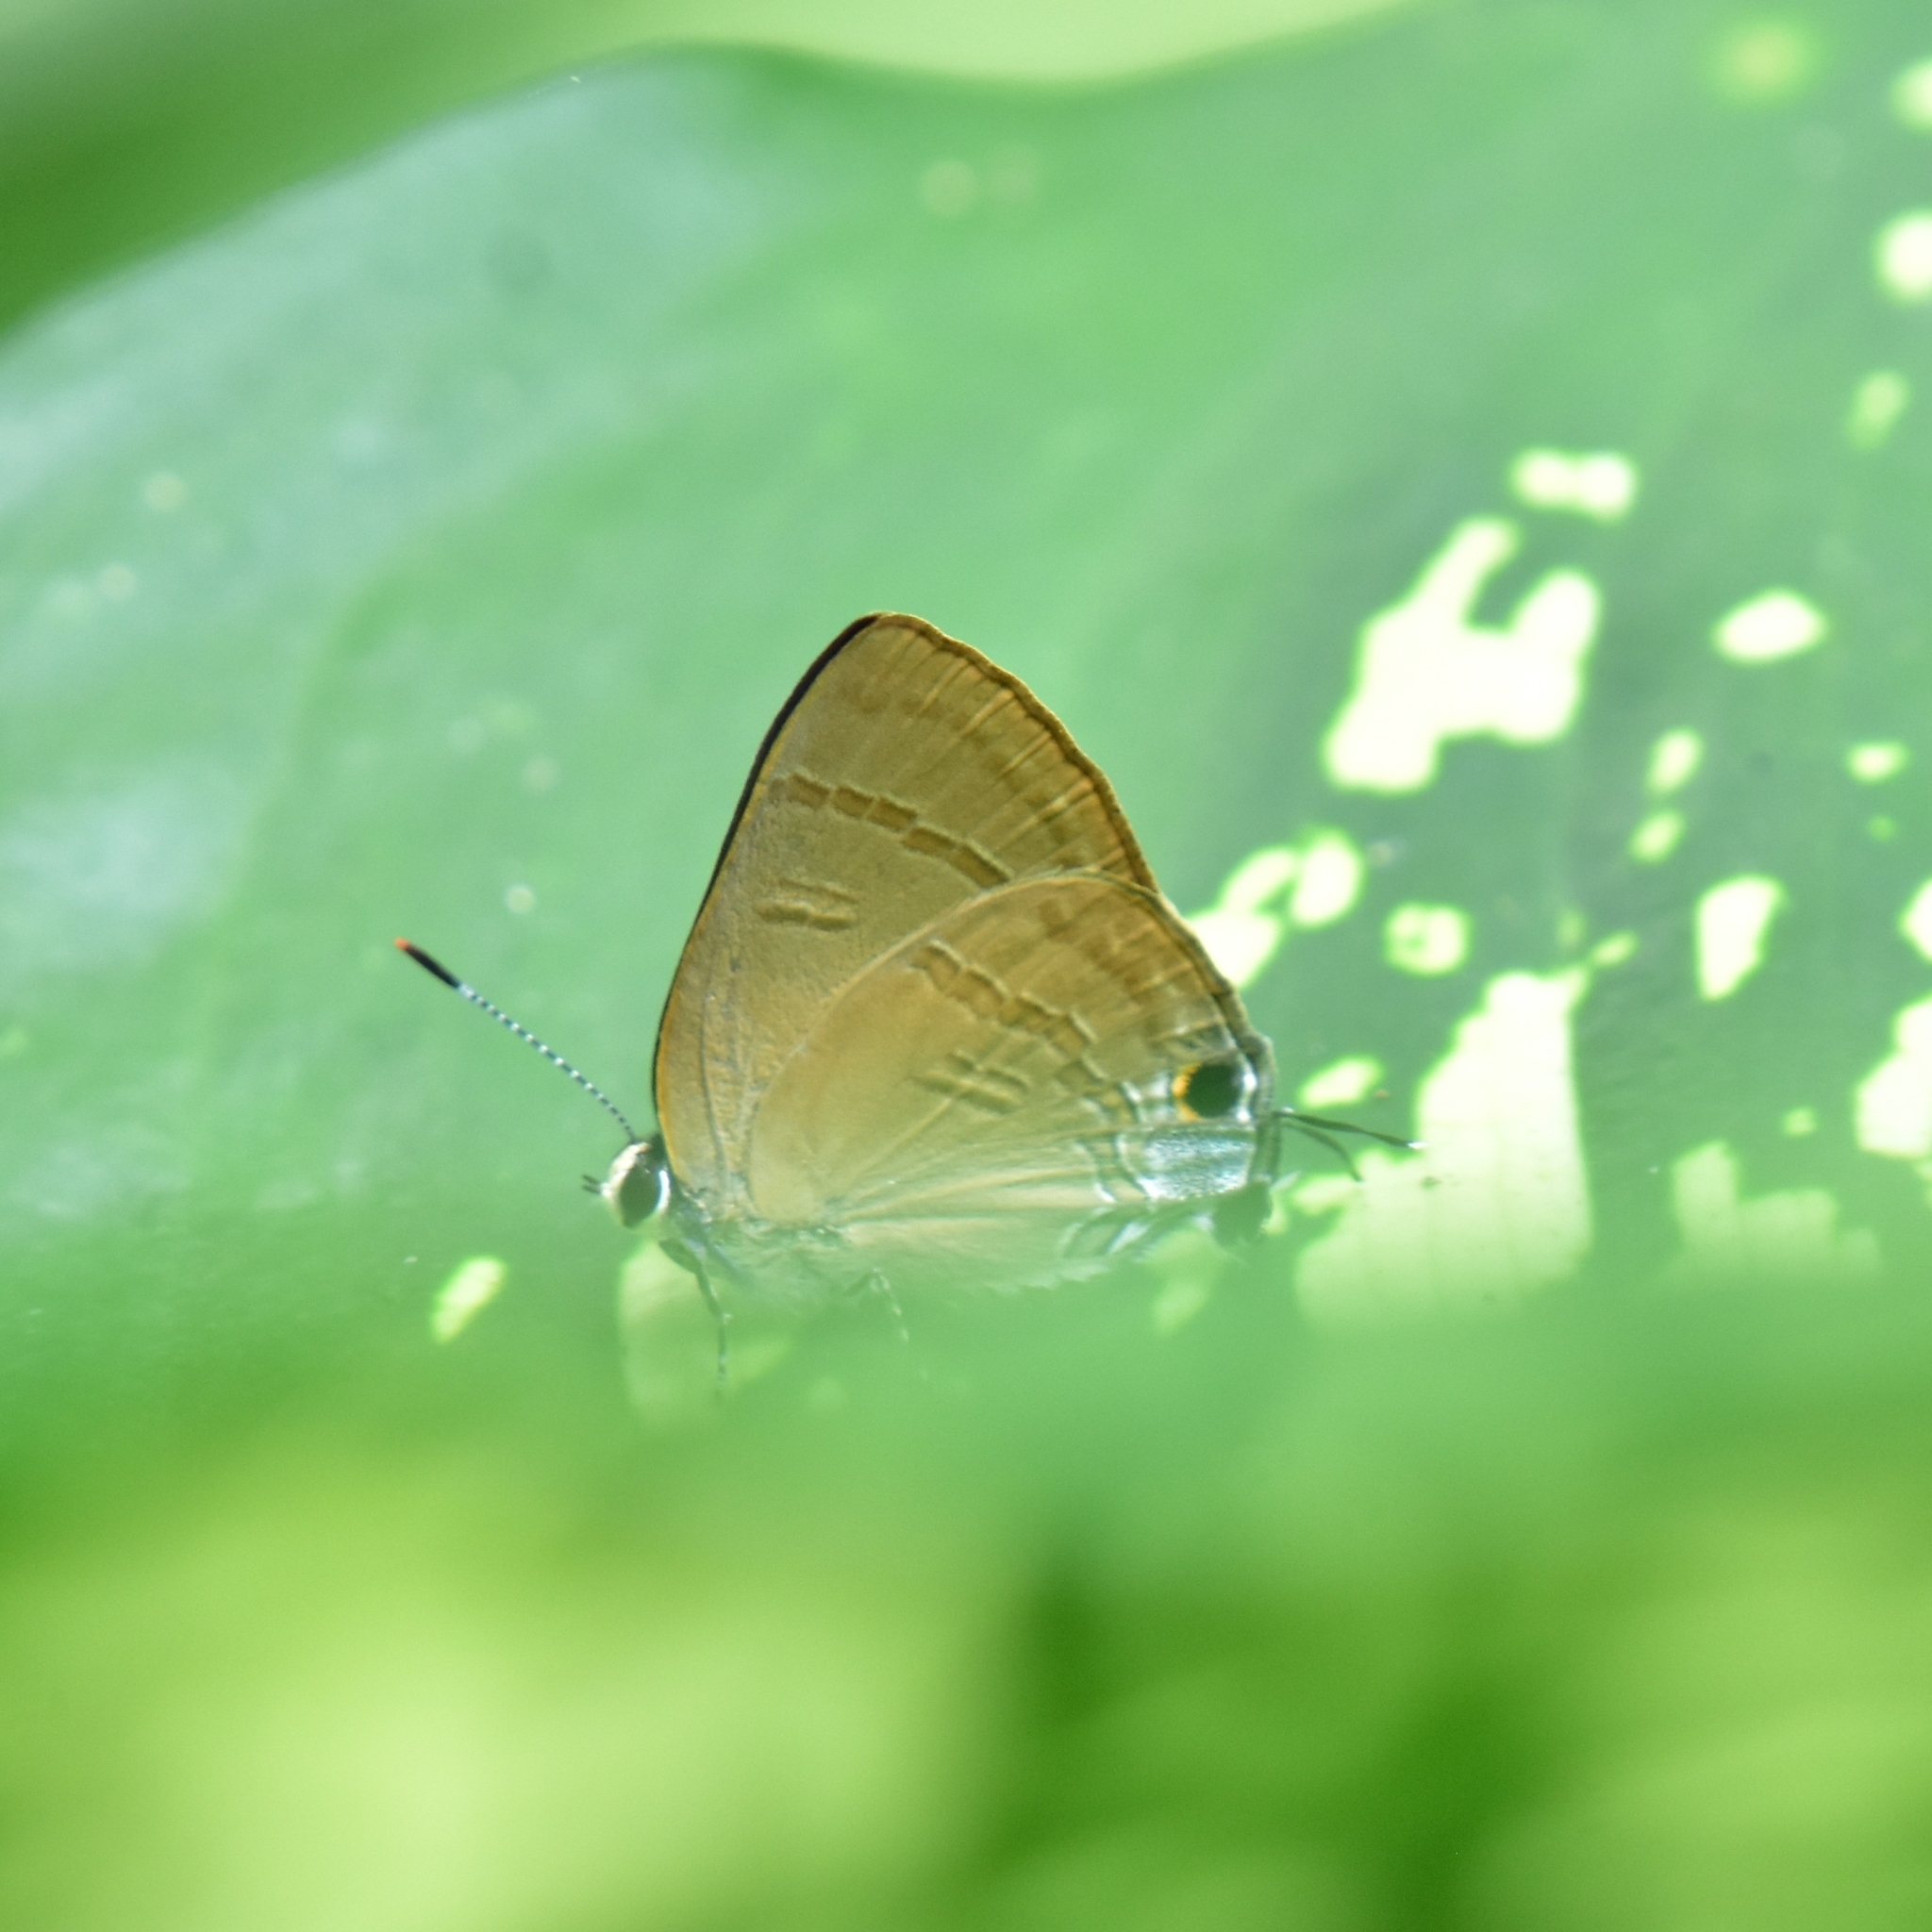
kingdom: Animalia
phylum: Arthropoda
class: Insecta
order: Lepidoptera
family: Lycaenidae
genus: Rapala
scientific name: Rapala manea
